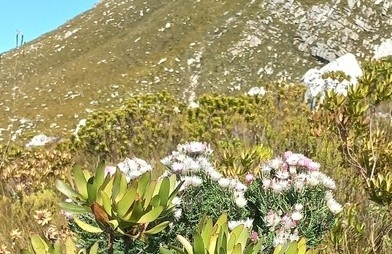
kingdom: Plantae
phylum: Tracheophyta
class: Magnoliopsida
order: Asterales
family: Asteraceae
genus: Phaenocoma
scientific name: Phaenocoma prolifera
